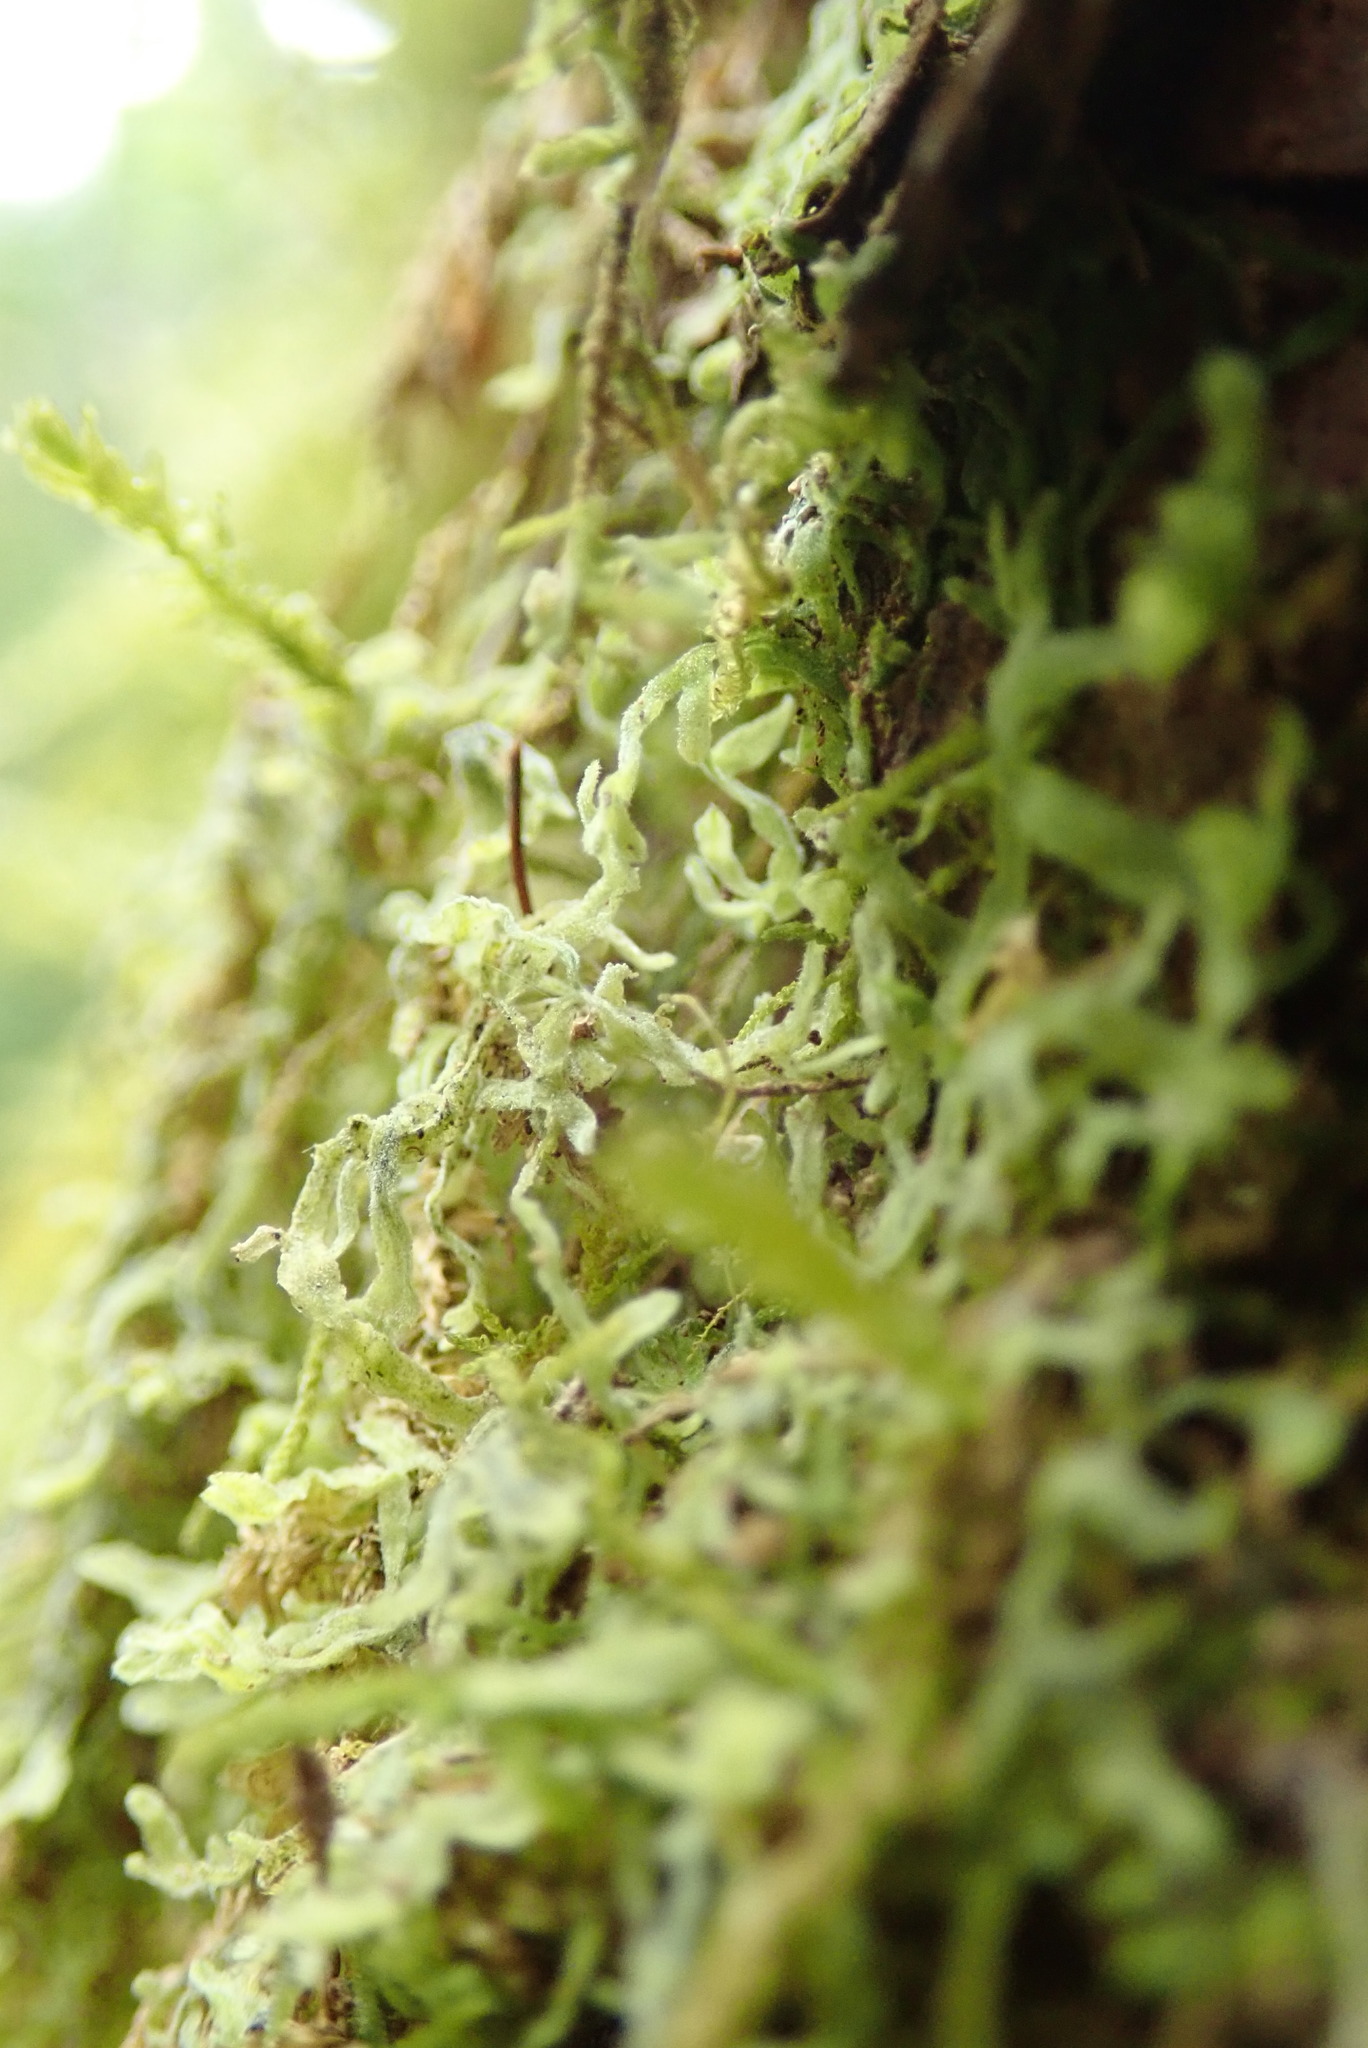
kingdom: Plantae
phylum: Marchantiophyta
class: Jungermanniopsida
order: Metzgeriales
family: Metzgeriaceae
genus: Metzgeria
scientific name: Metzgeria pubescens
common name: Downy veilwort
